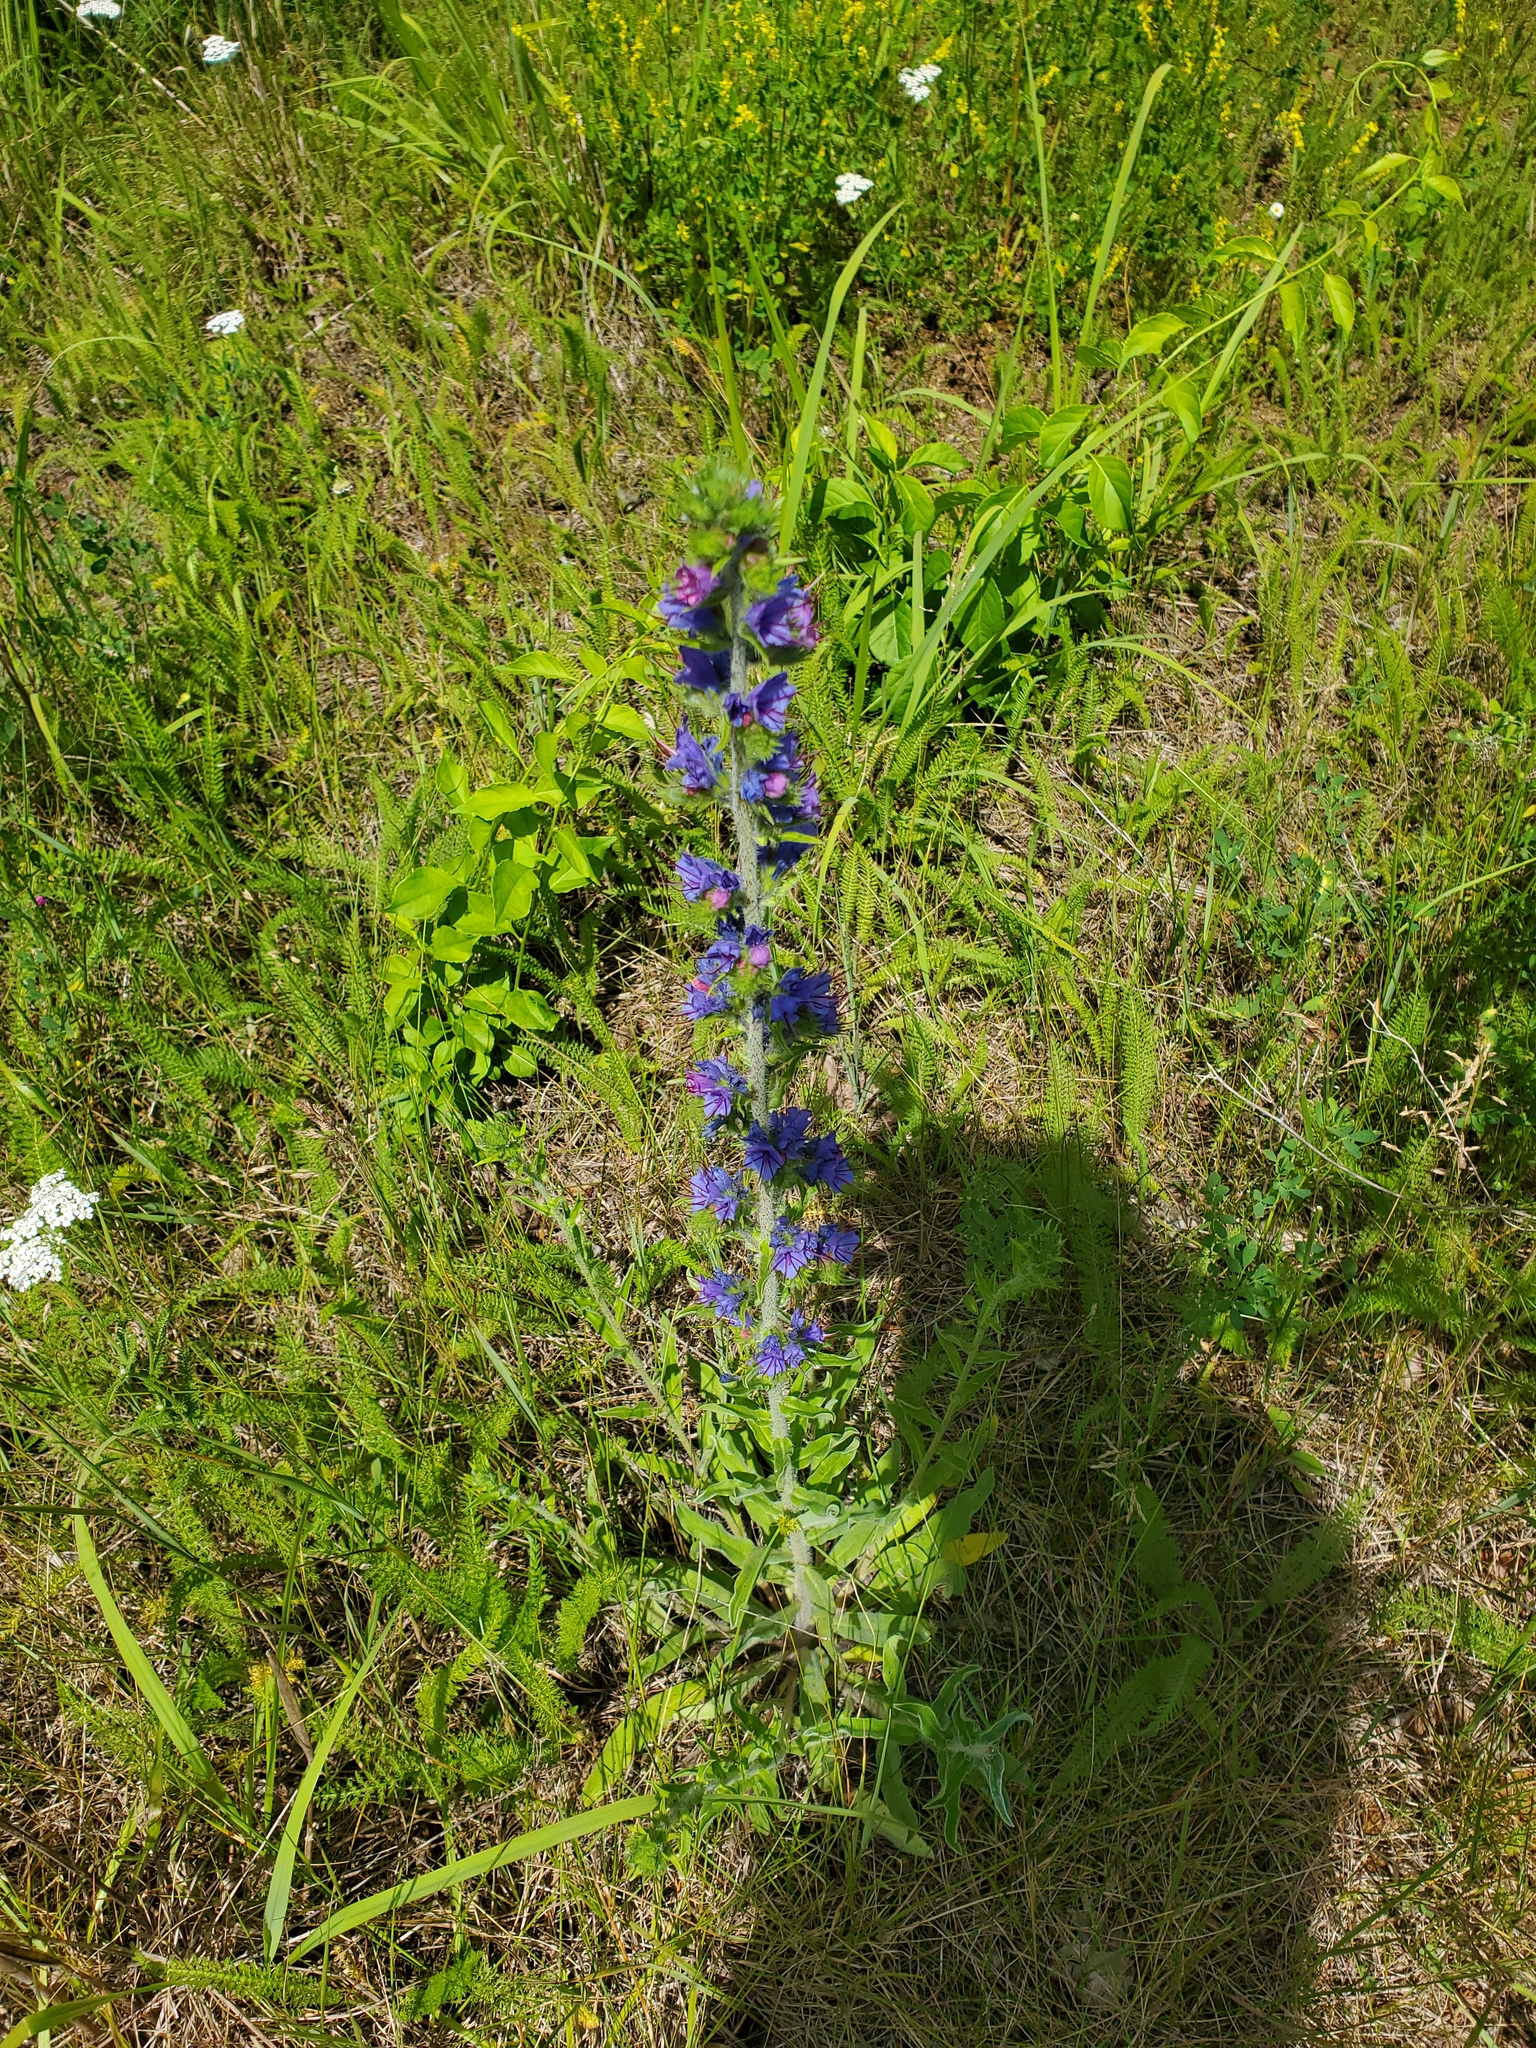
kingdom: Plantae
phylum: Tracheophyta
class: Magnoliopsida
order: Boraginales
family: Boraginaceae
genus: Echium
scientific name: Echium vulgare
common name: Common viper's bugloss
